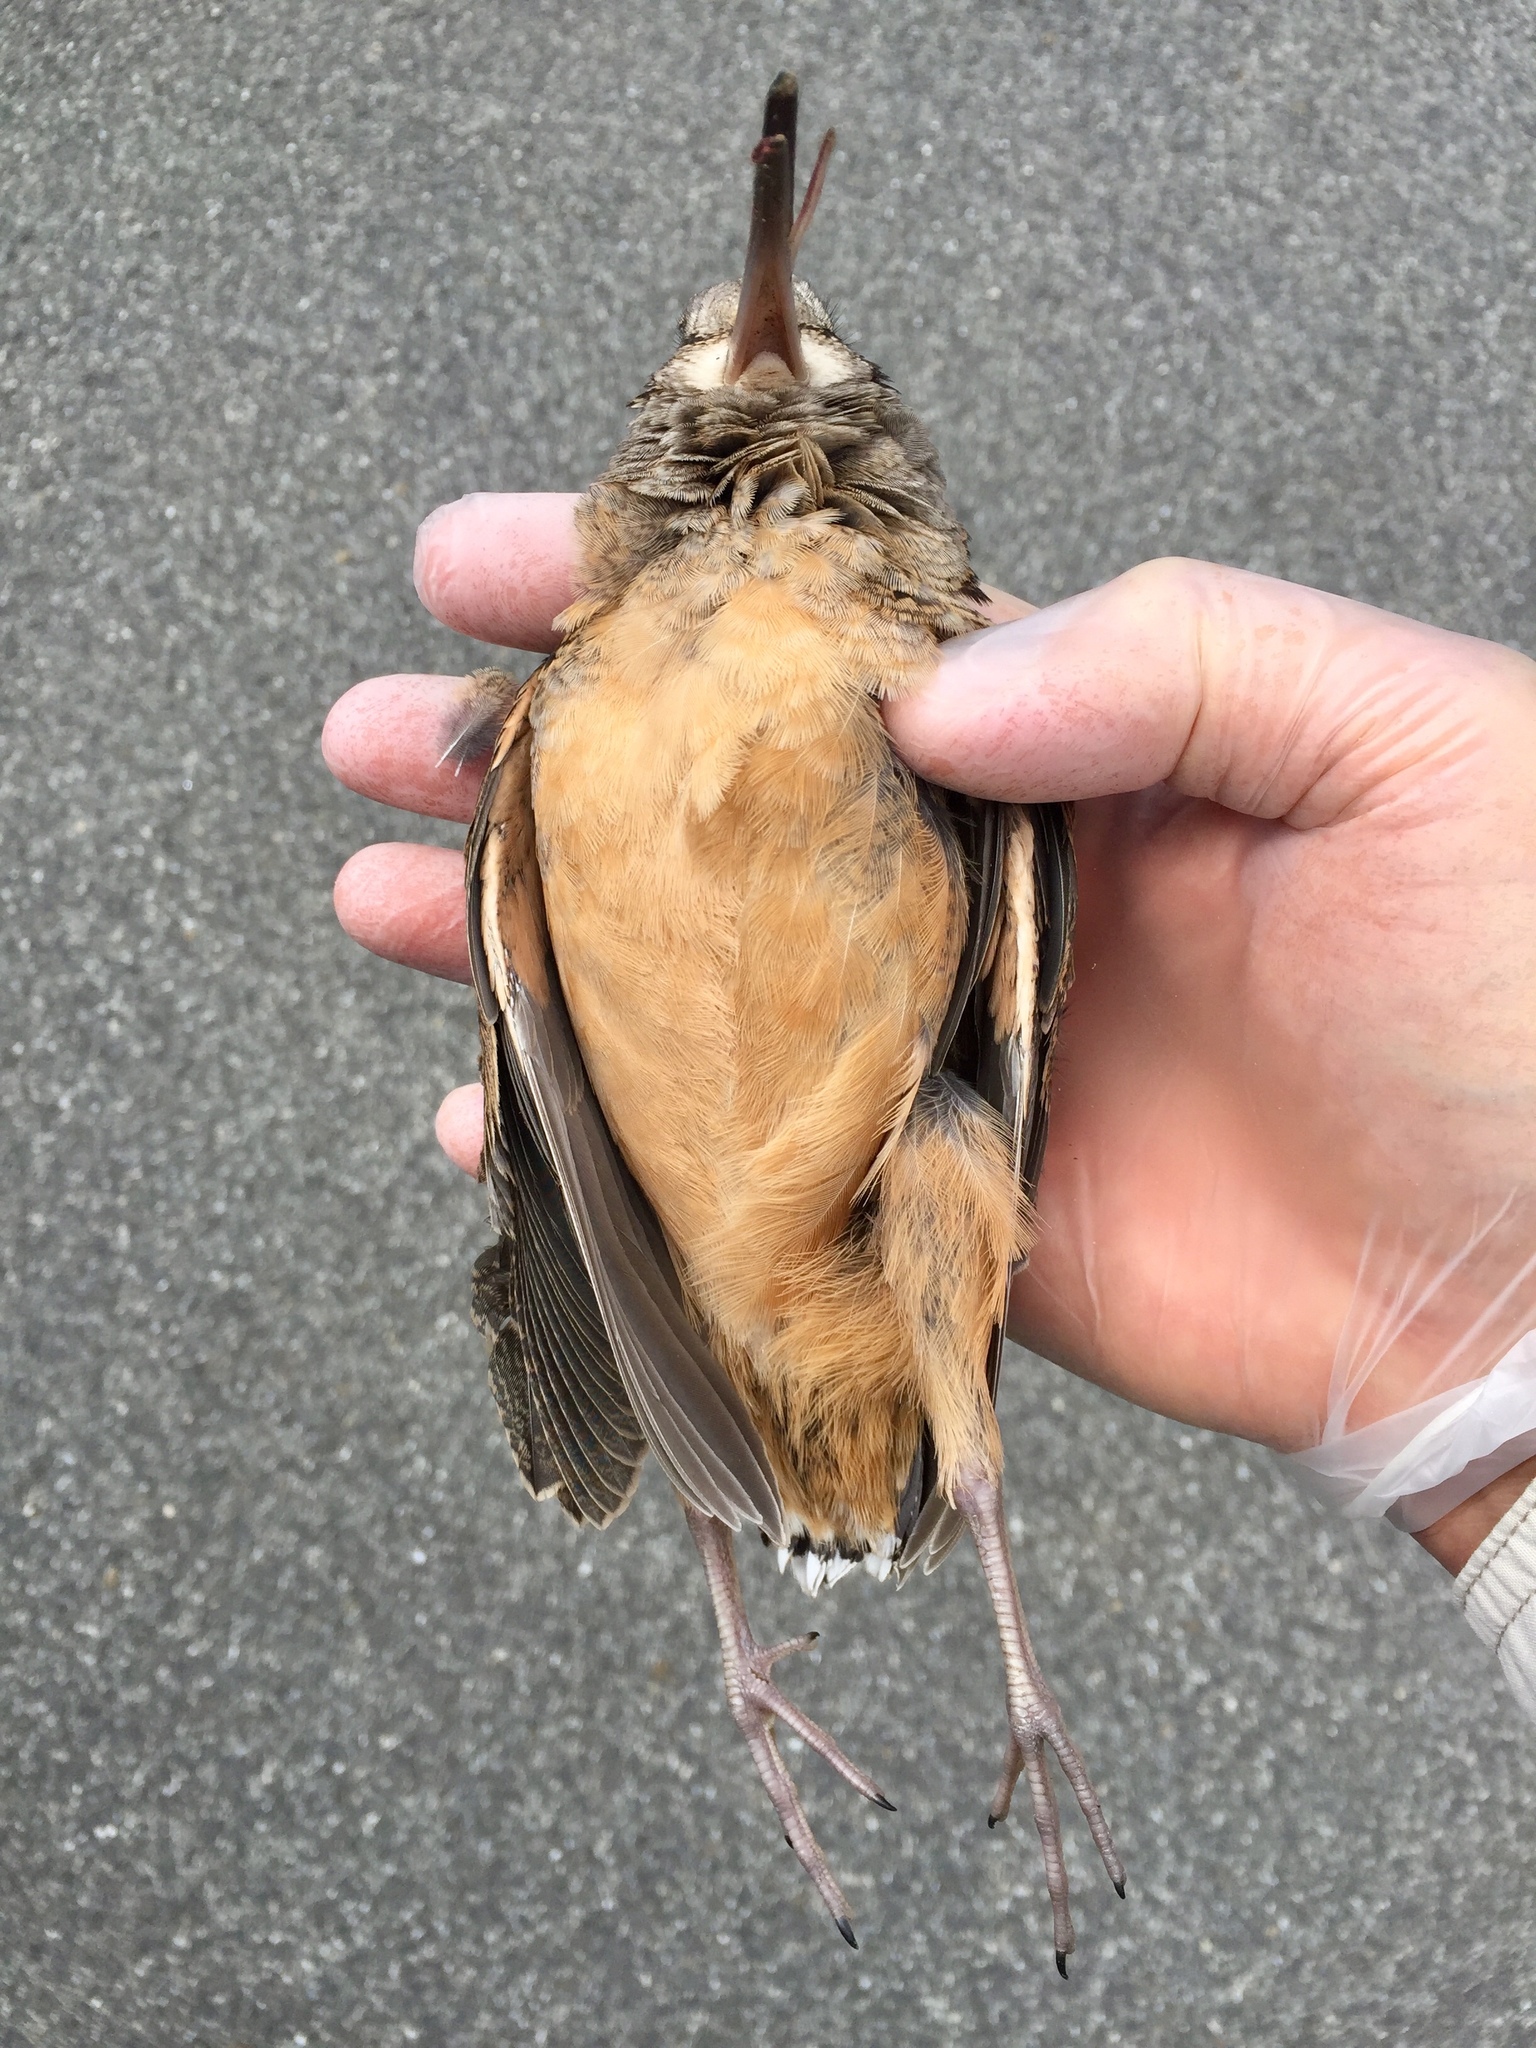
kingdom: Animalia
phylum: Chordata
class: Aves
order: Charadriiformes
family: Scolopacidae
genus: Scolopax
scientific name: Scolopax minor
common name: American woodcock
